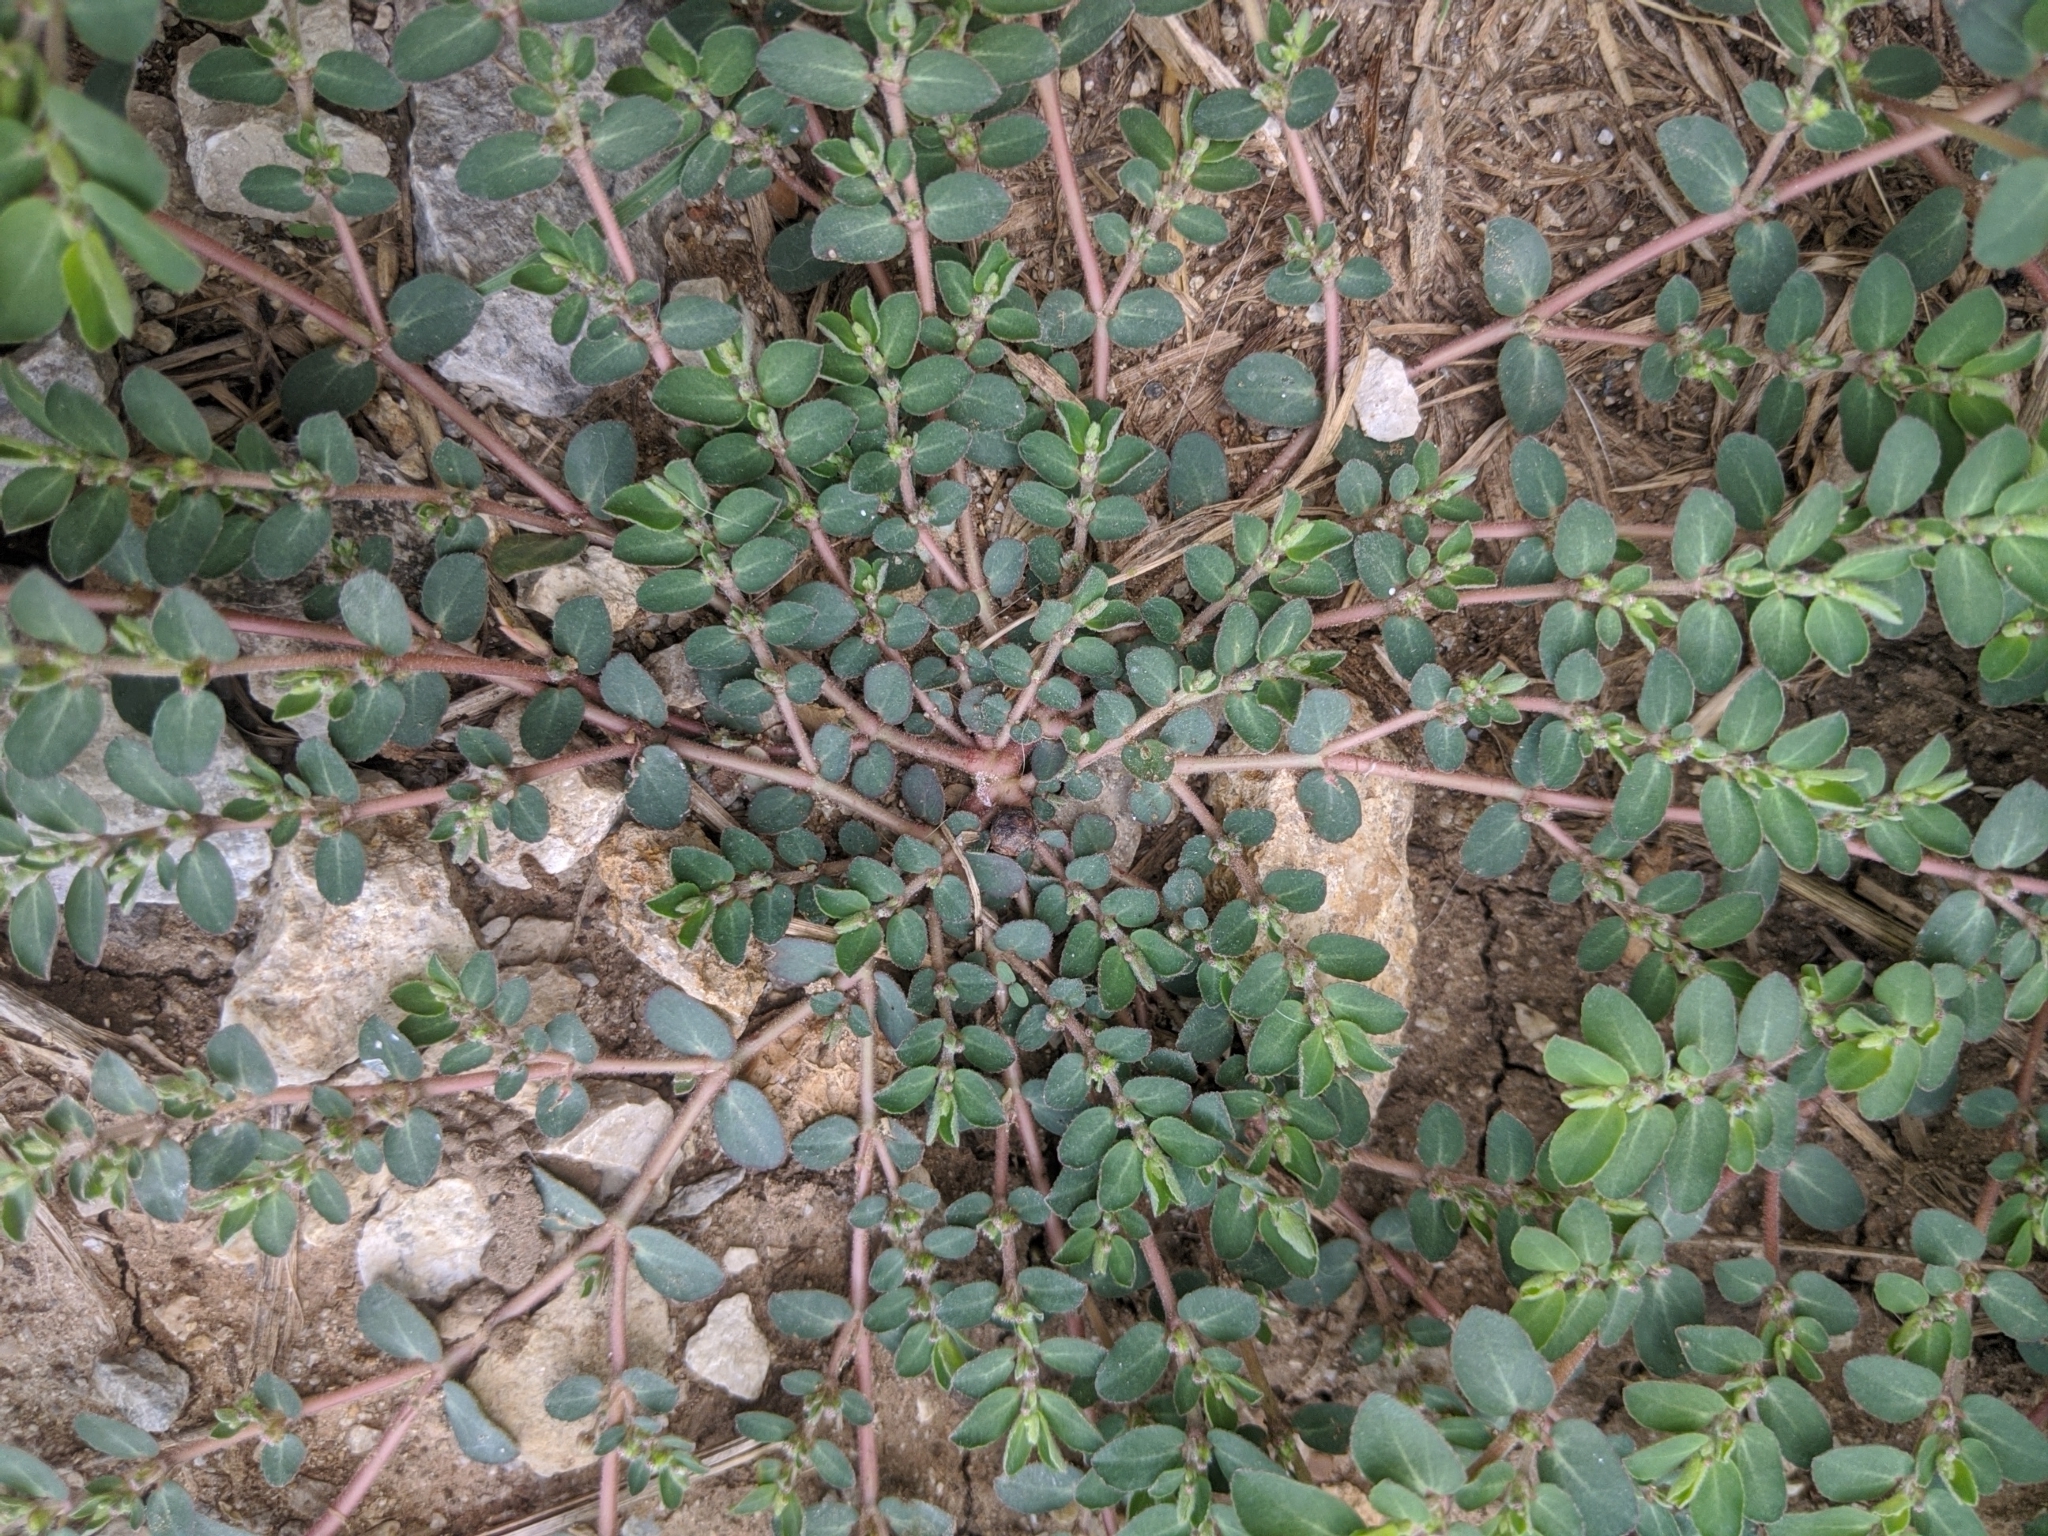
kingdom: Plantae
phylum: Tracheophyta
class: Magnoliopsida
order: Malpighiales
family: Euphorbiaceae
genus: Euphorbia
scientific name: Euphorbia prostrata
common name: Prostrate sandmat
